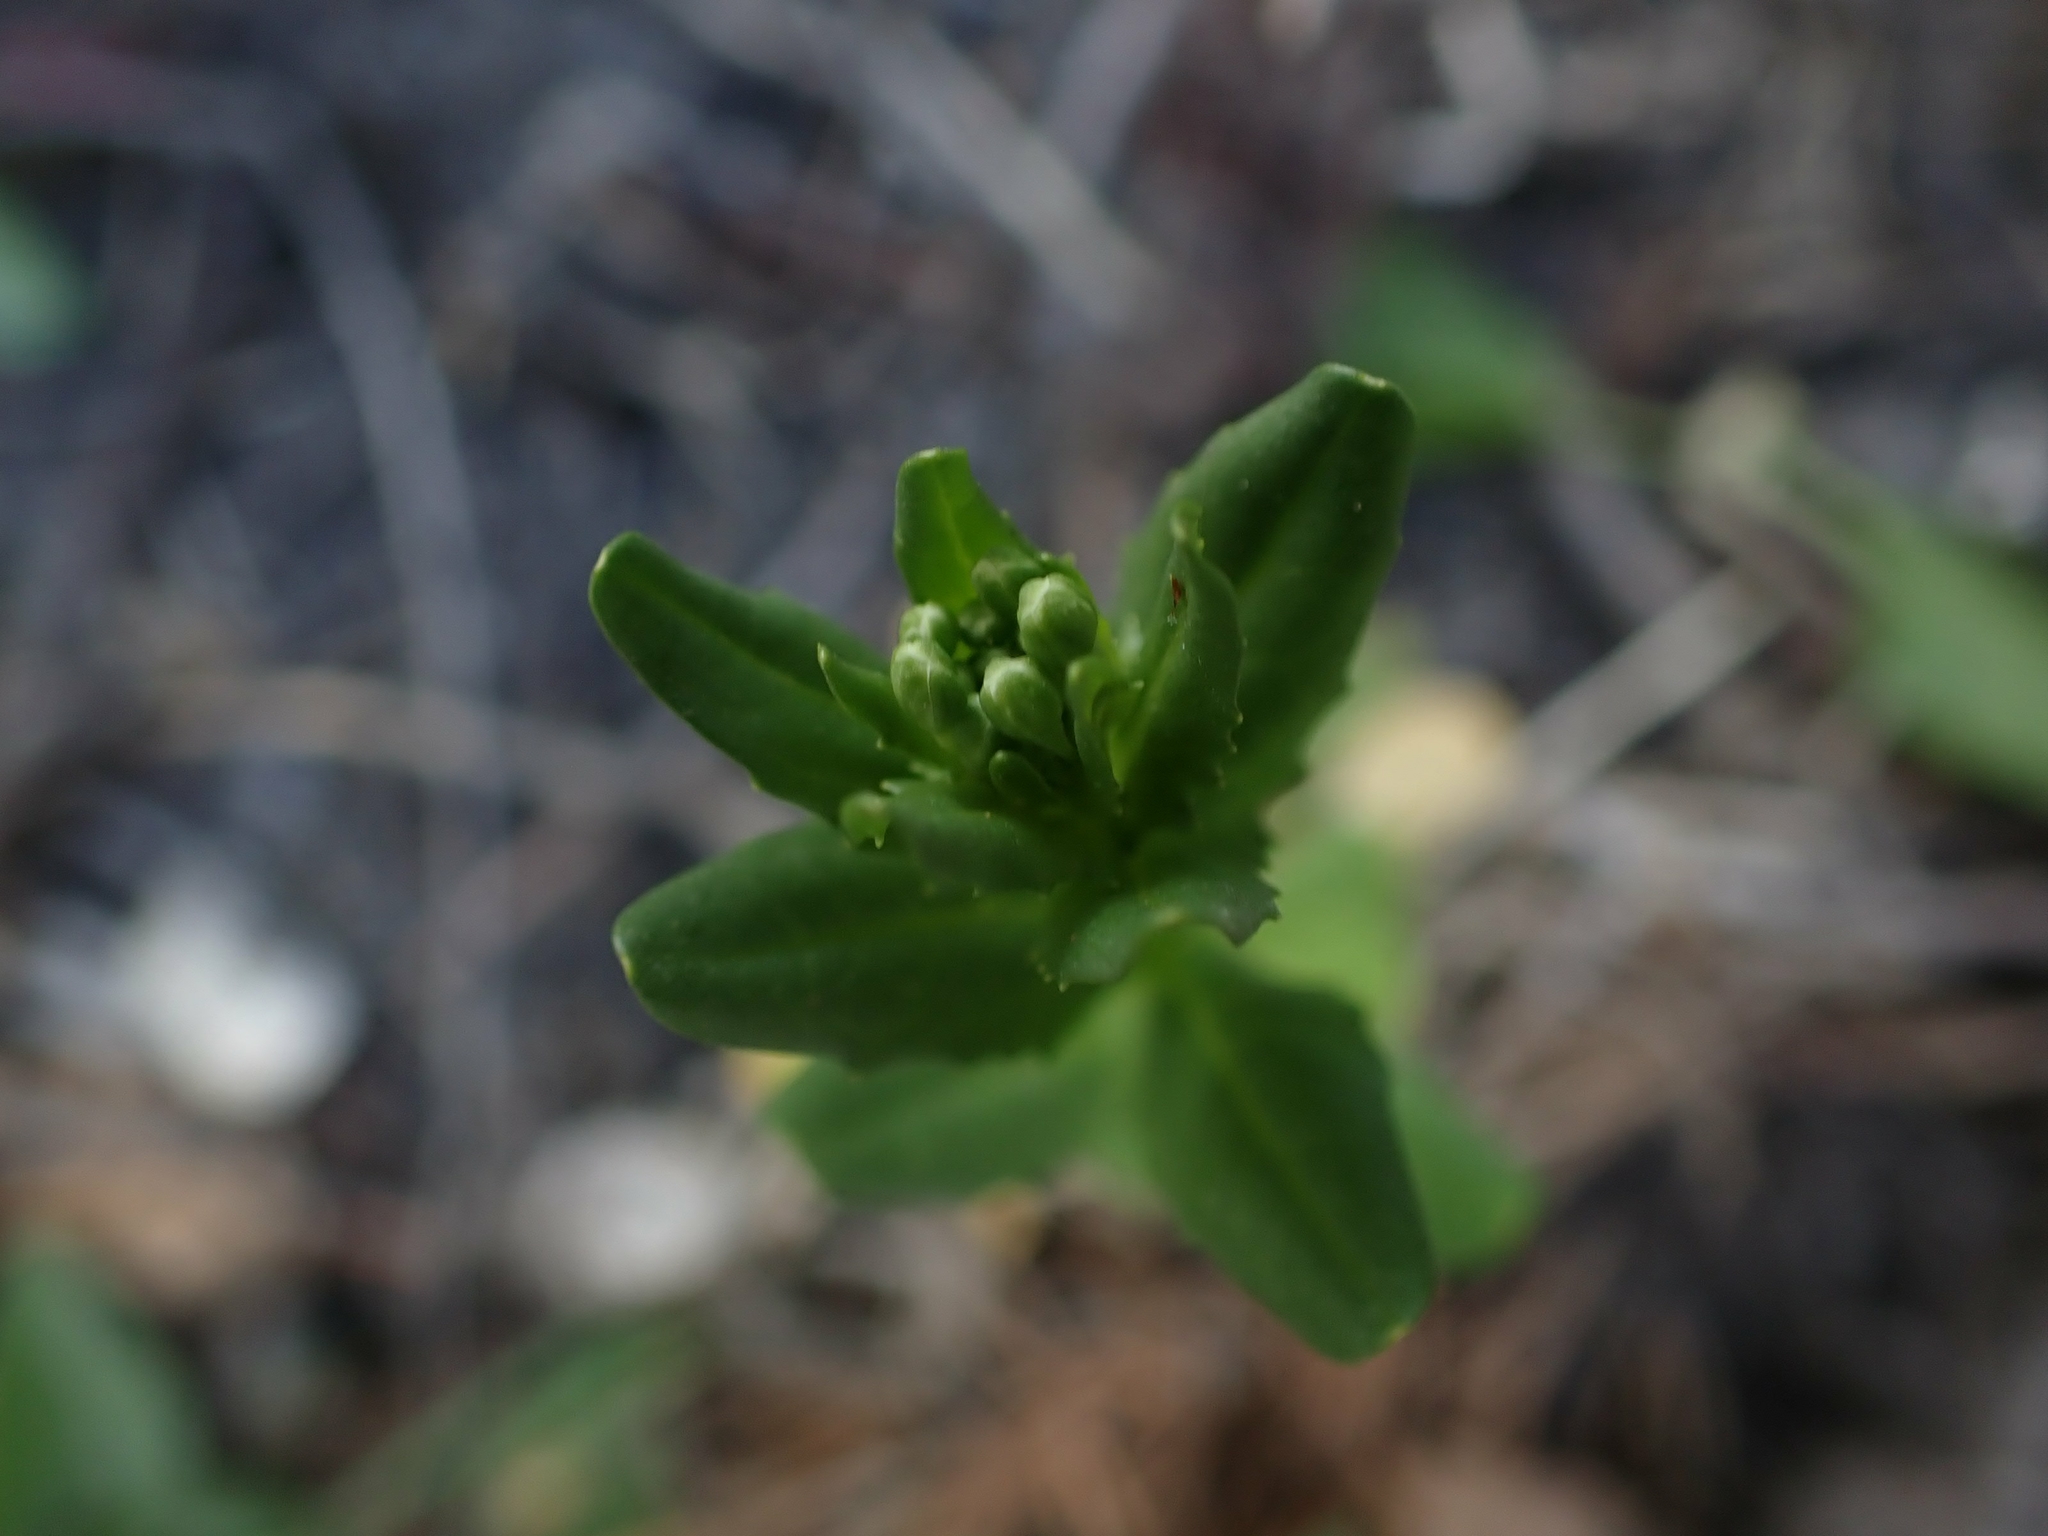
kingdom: Plantae
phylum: Tracheophyta
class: Magnoliopsida
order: Brassicales
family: Brassicaceae
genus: Thlaspi
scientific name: Thlaspi arvense
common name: Field pennycress
